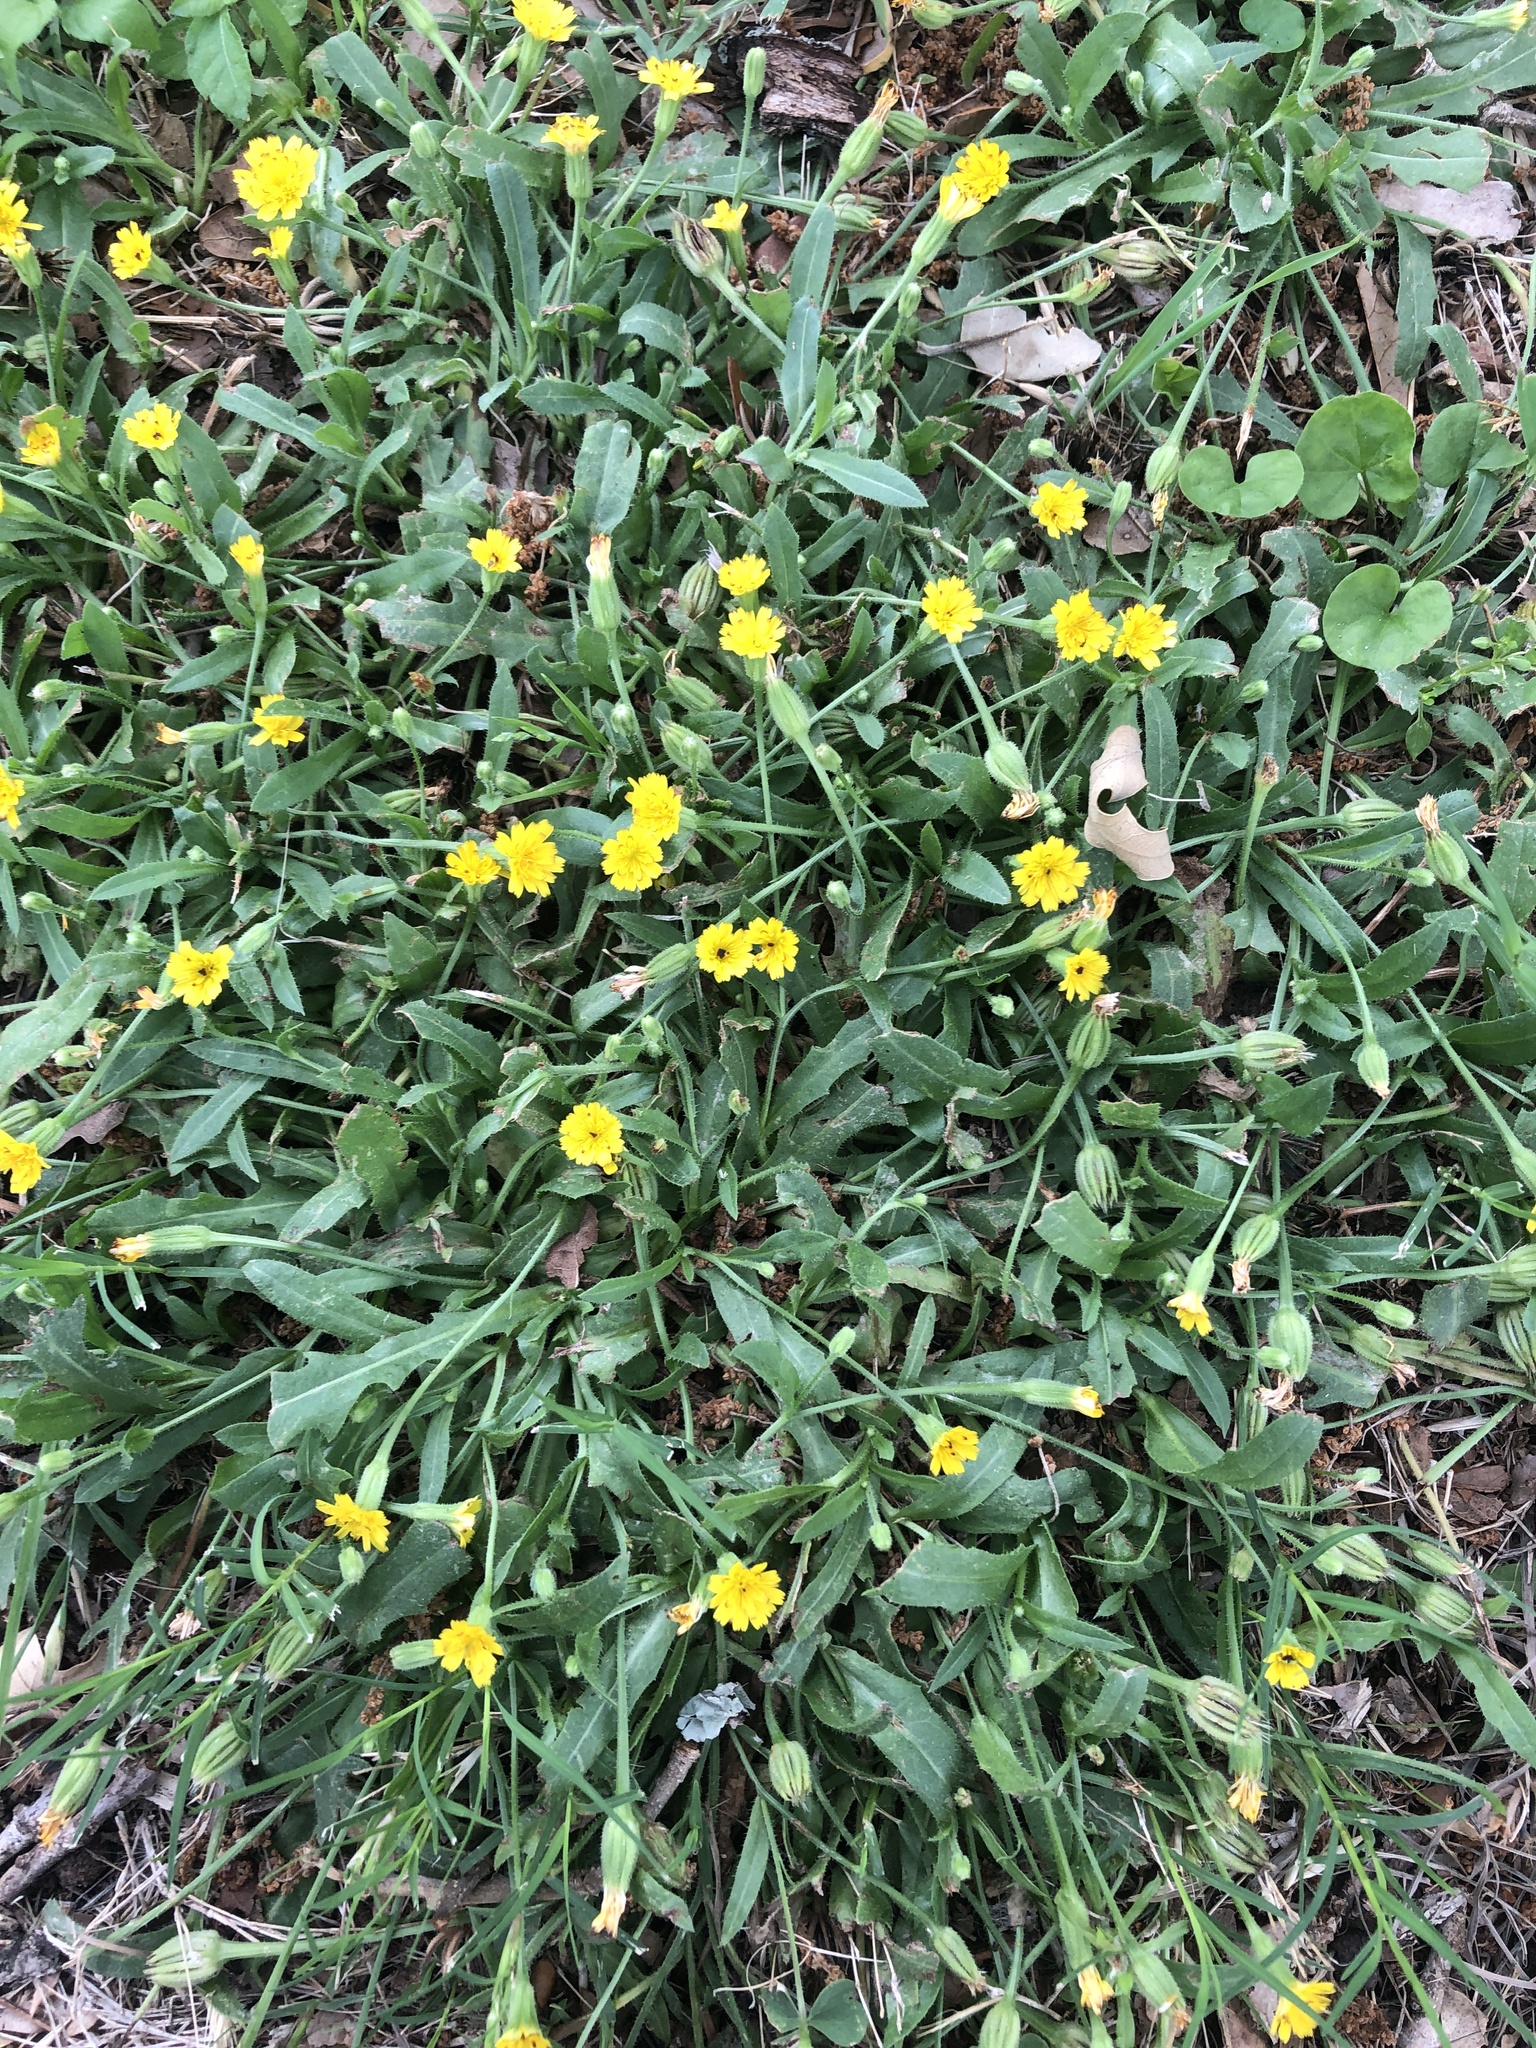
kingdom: Plantae
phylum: Tracheophyta
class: Magnoliopsida
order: Asterales
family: Asteraceae
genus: Hedypnois
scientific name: Hedypnois rhagadioloides
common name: Cretan weed
